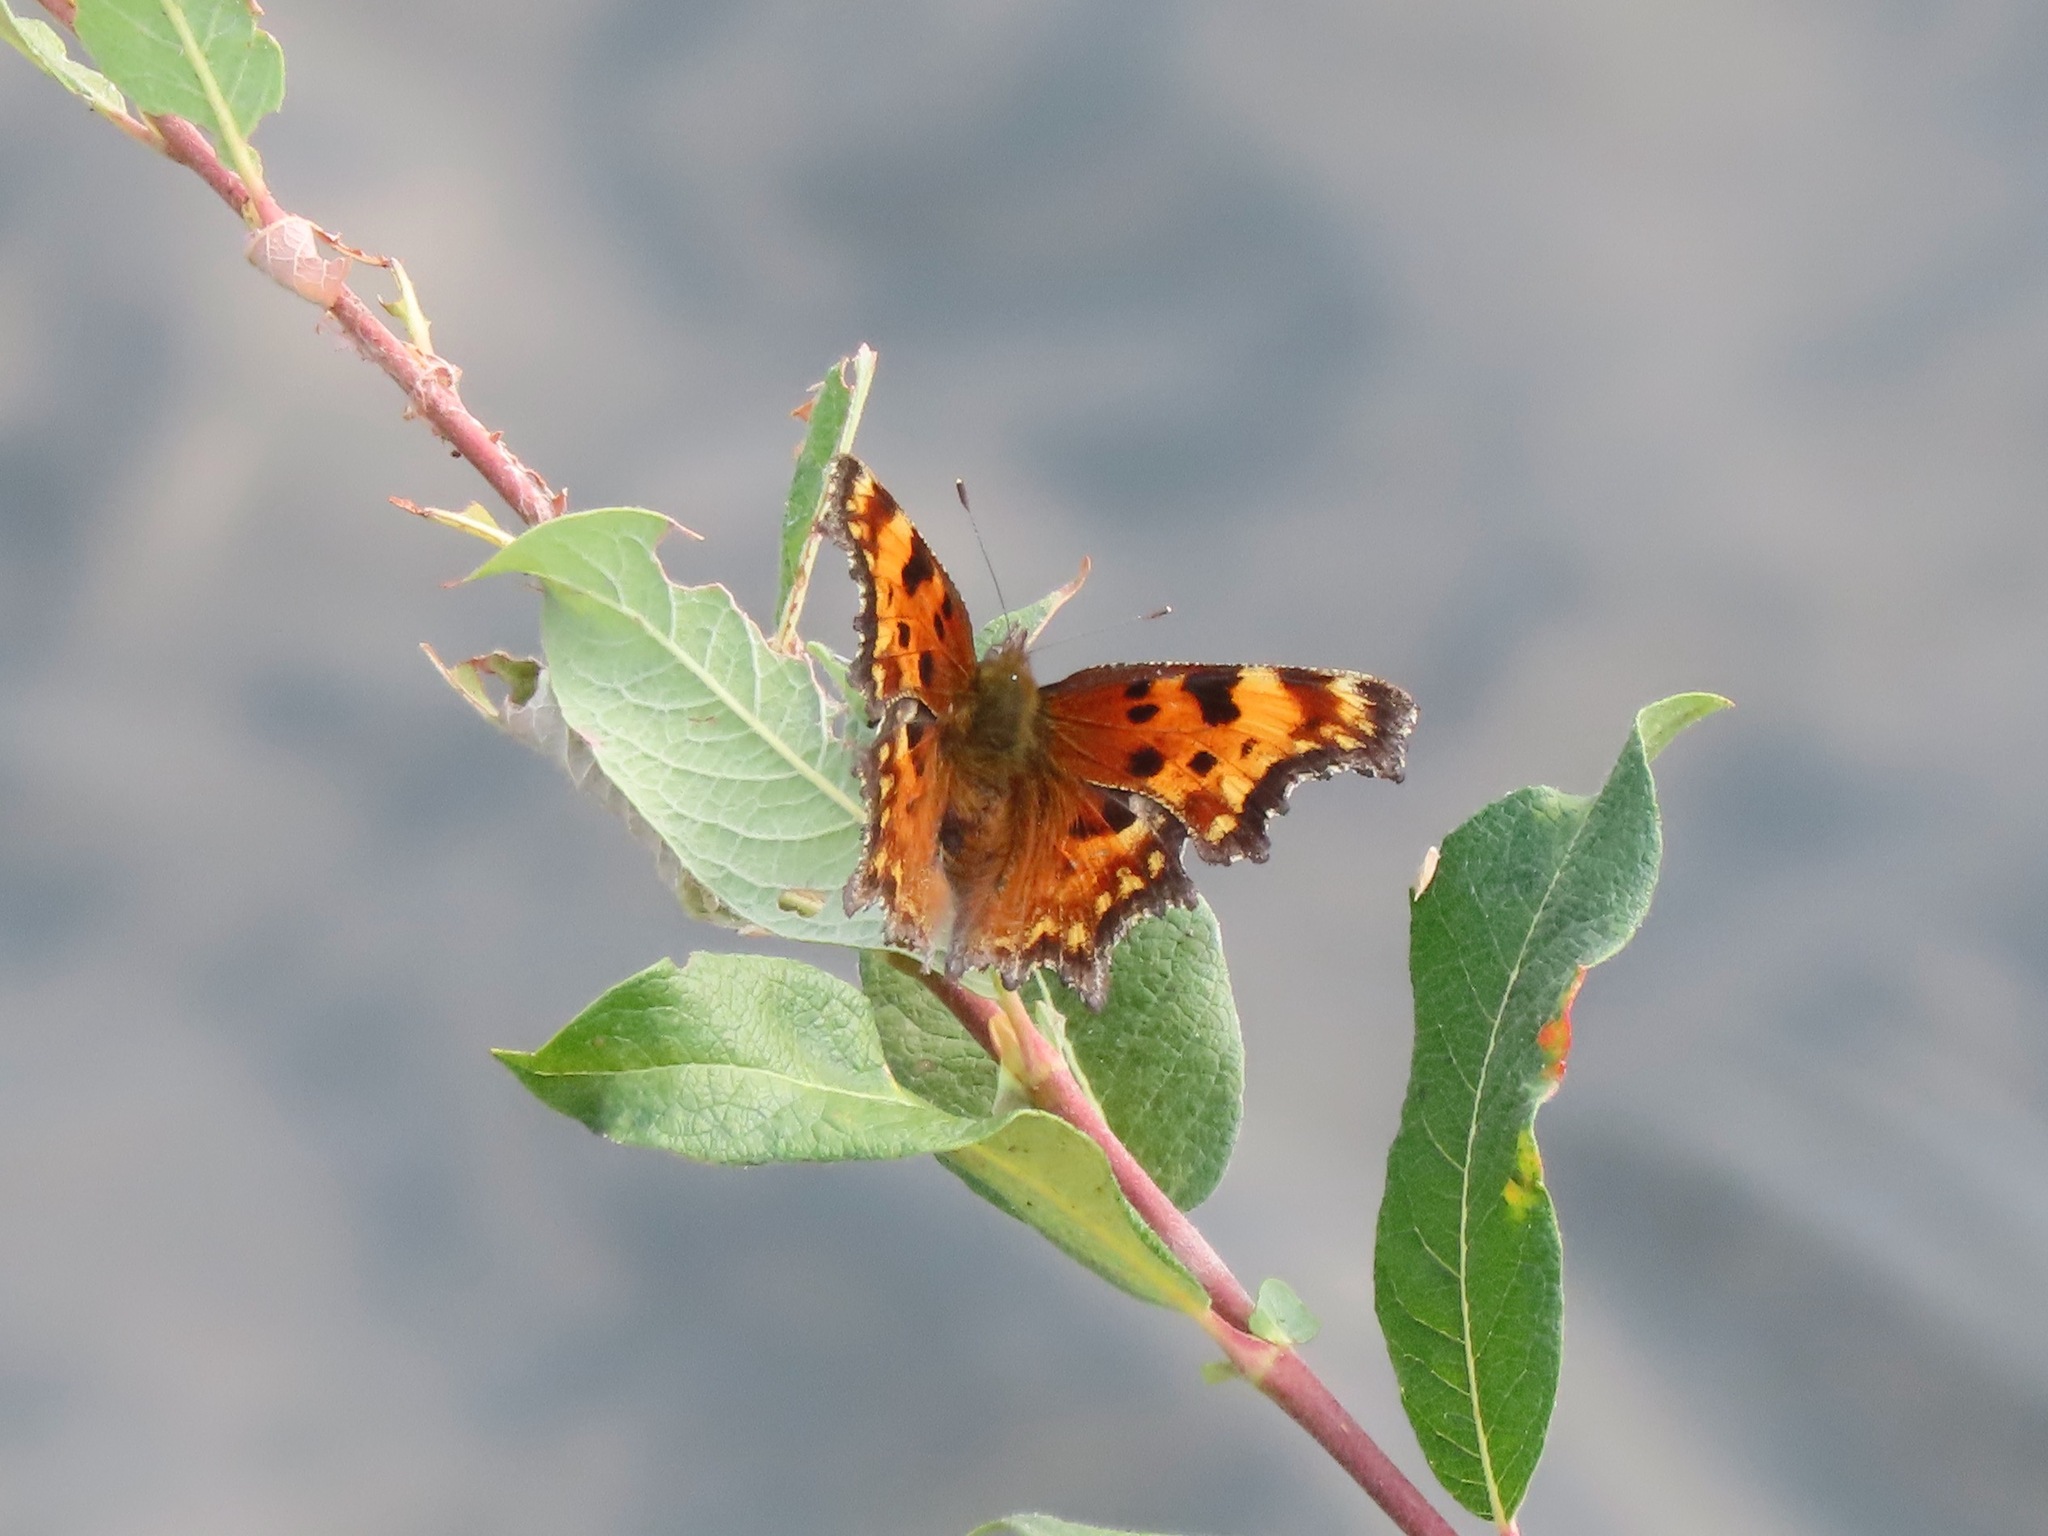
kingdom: Animalia
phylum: Arthropoda
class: Insecta
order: Lepidoptera
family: Nymphalidae
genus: Polygonia
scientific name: Polygonia gracilis
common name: Hoary comma
